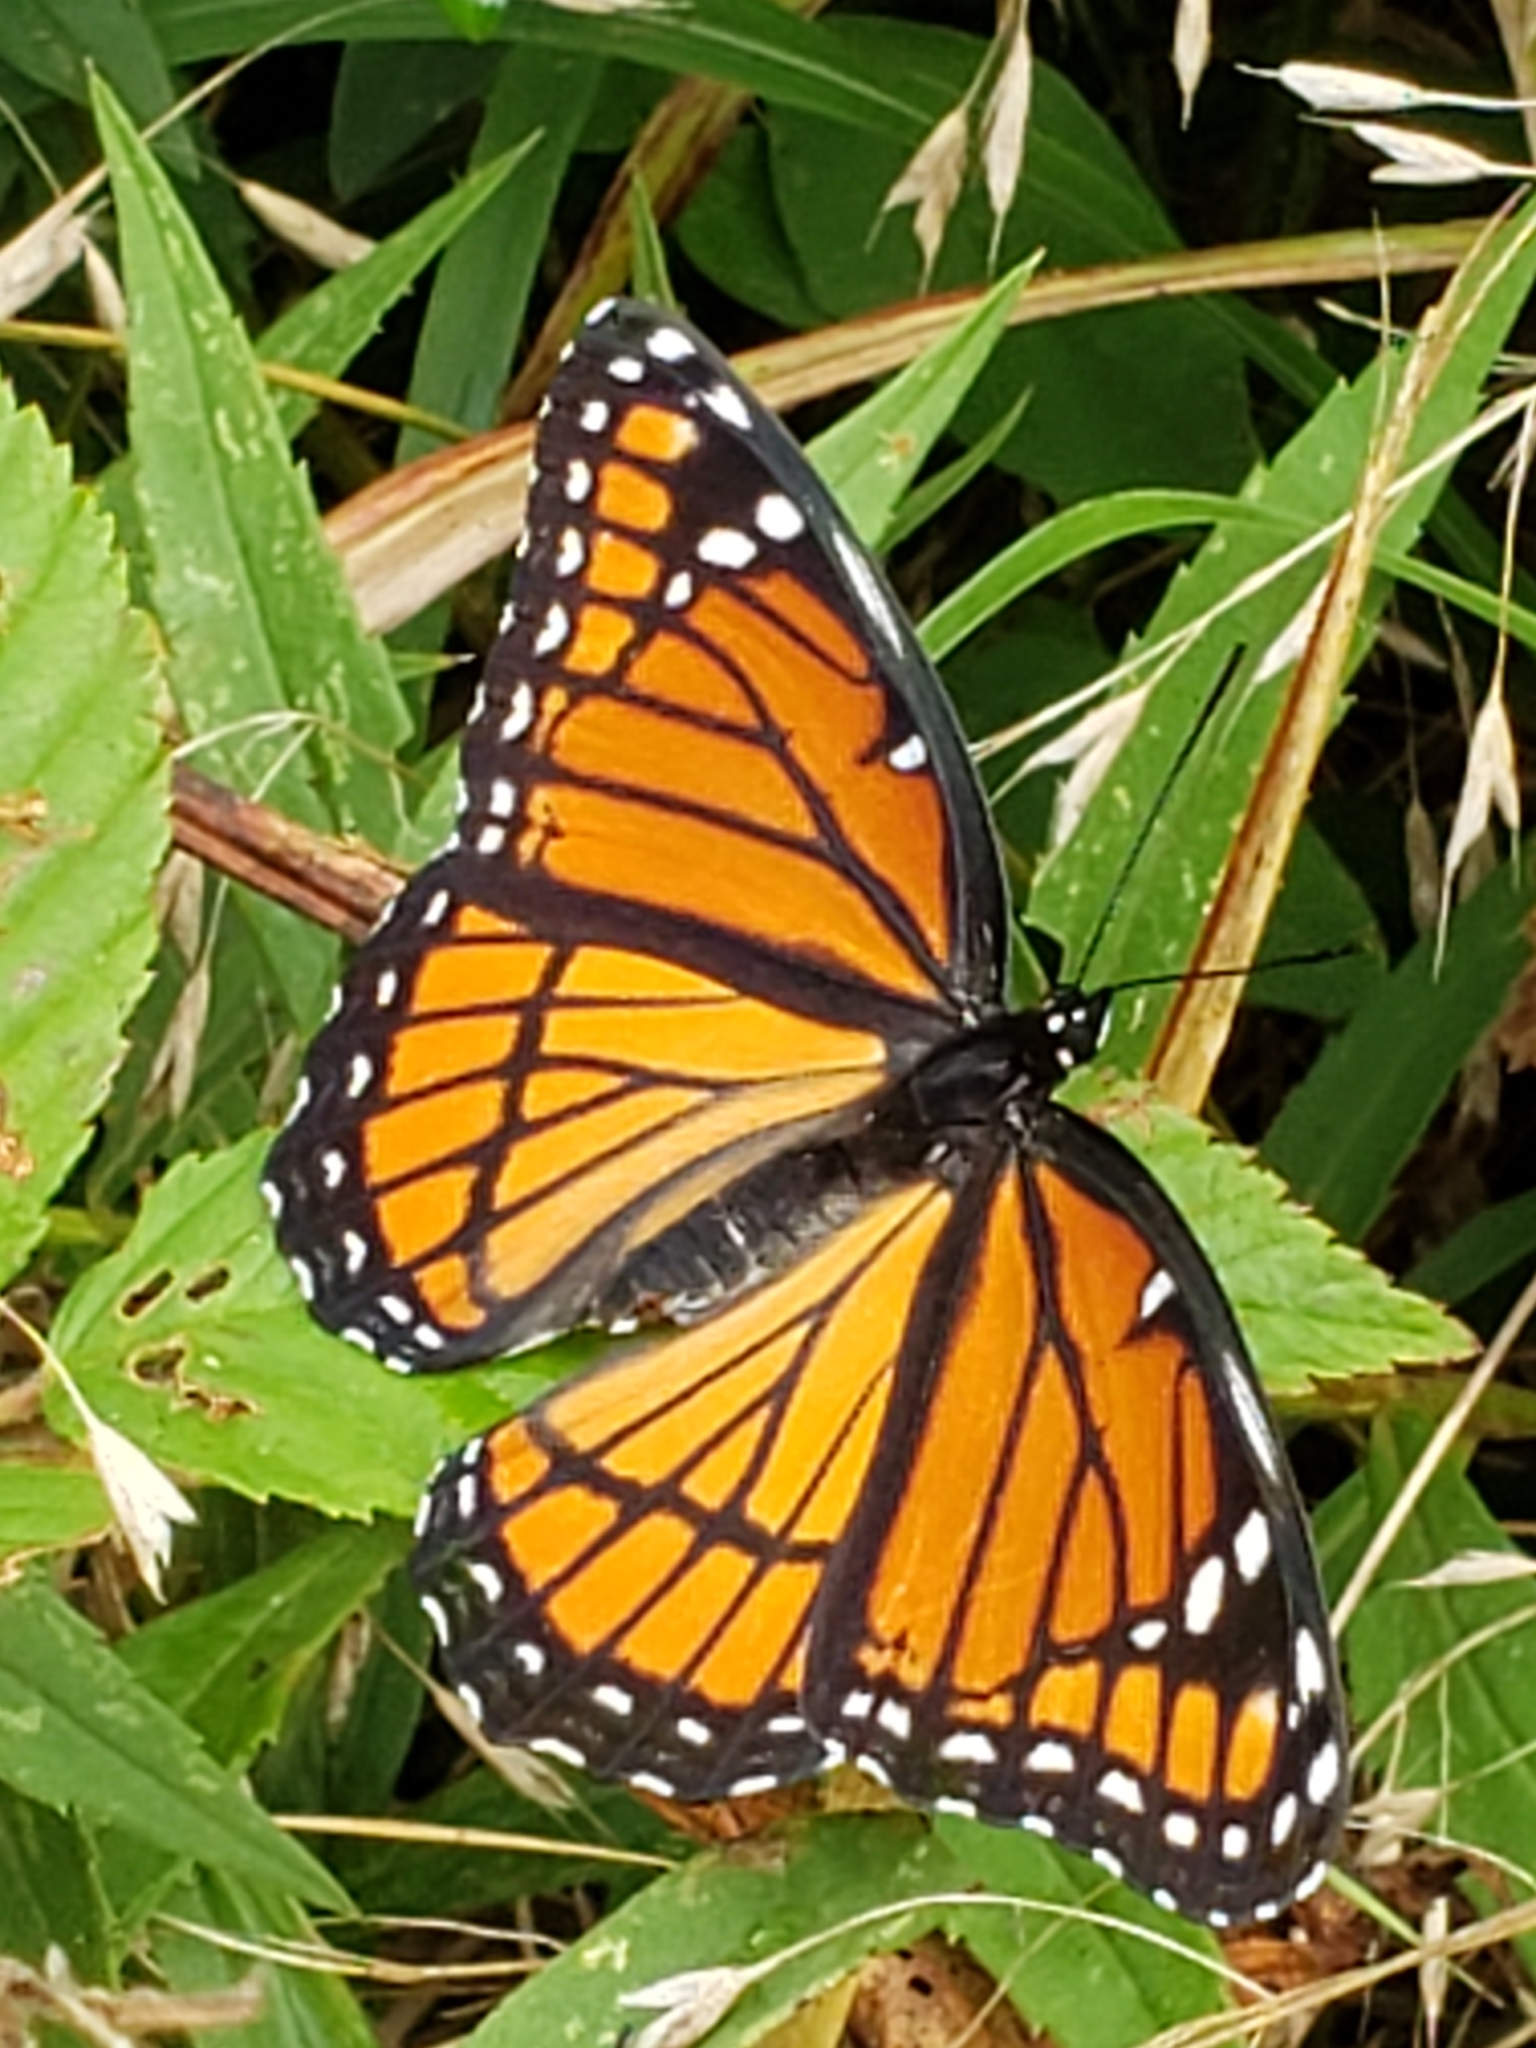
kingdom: Animalia
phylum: Arthropoda
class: Insecta
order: Lepidoptera
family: Nymphalidae
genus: Limenitis
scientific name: Limenitis archippus
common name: Viceroy
